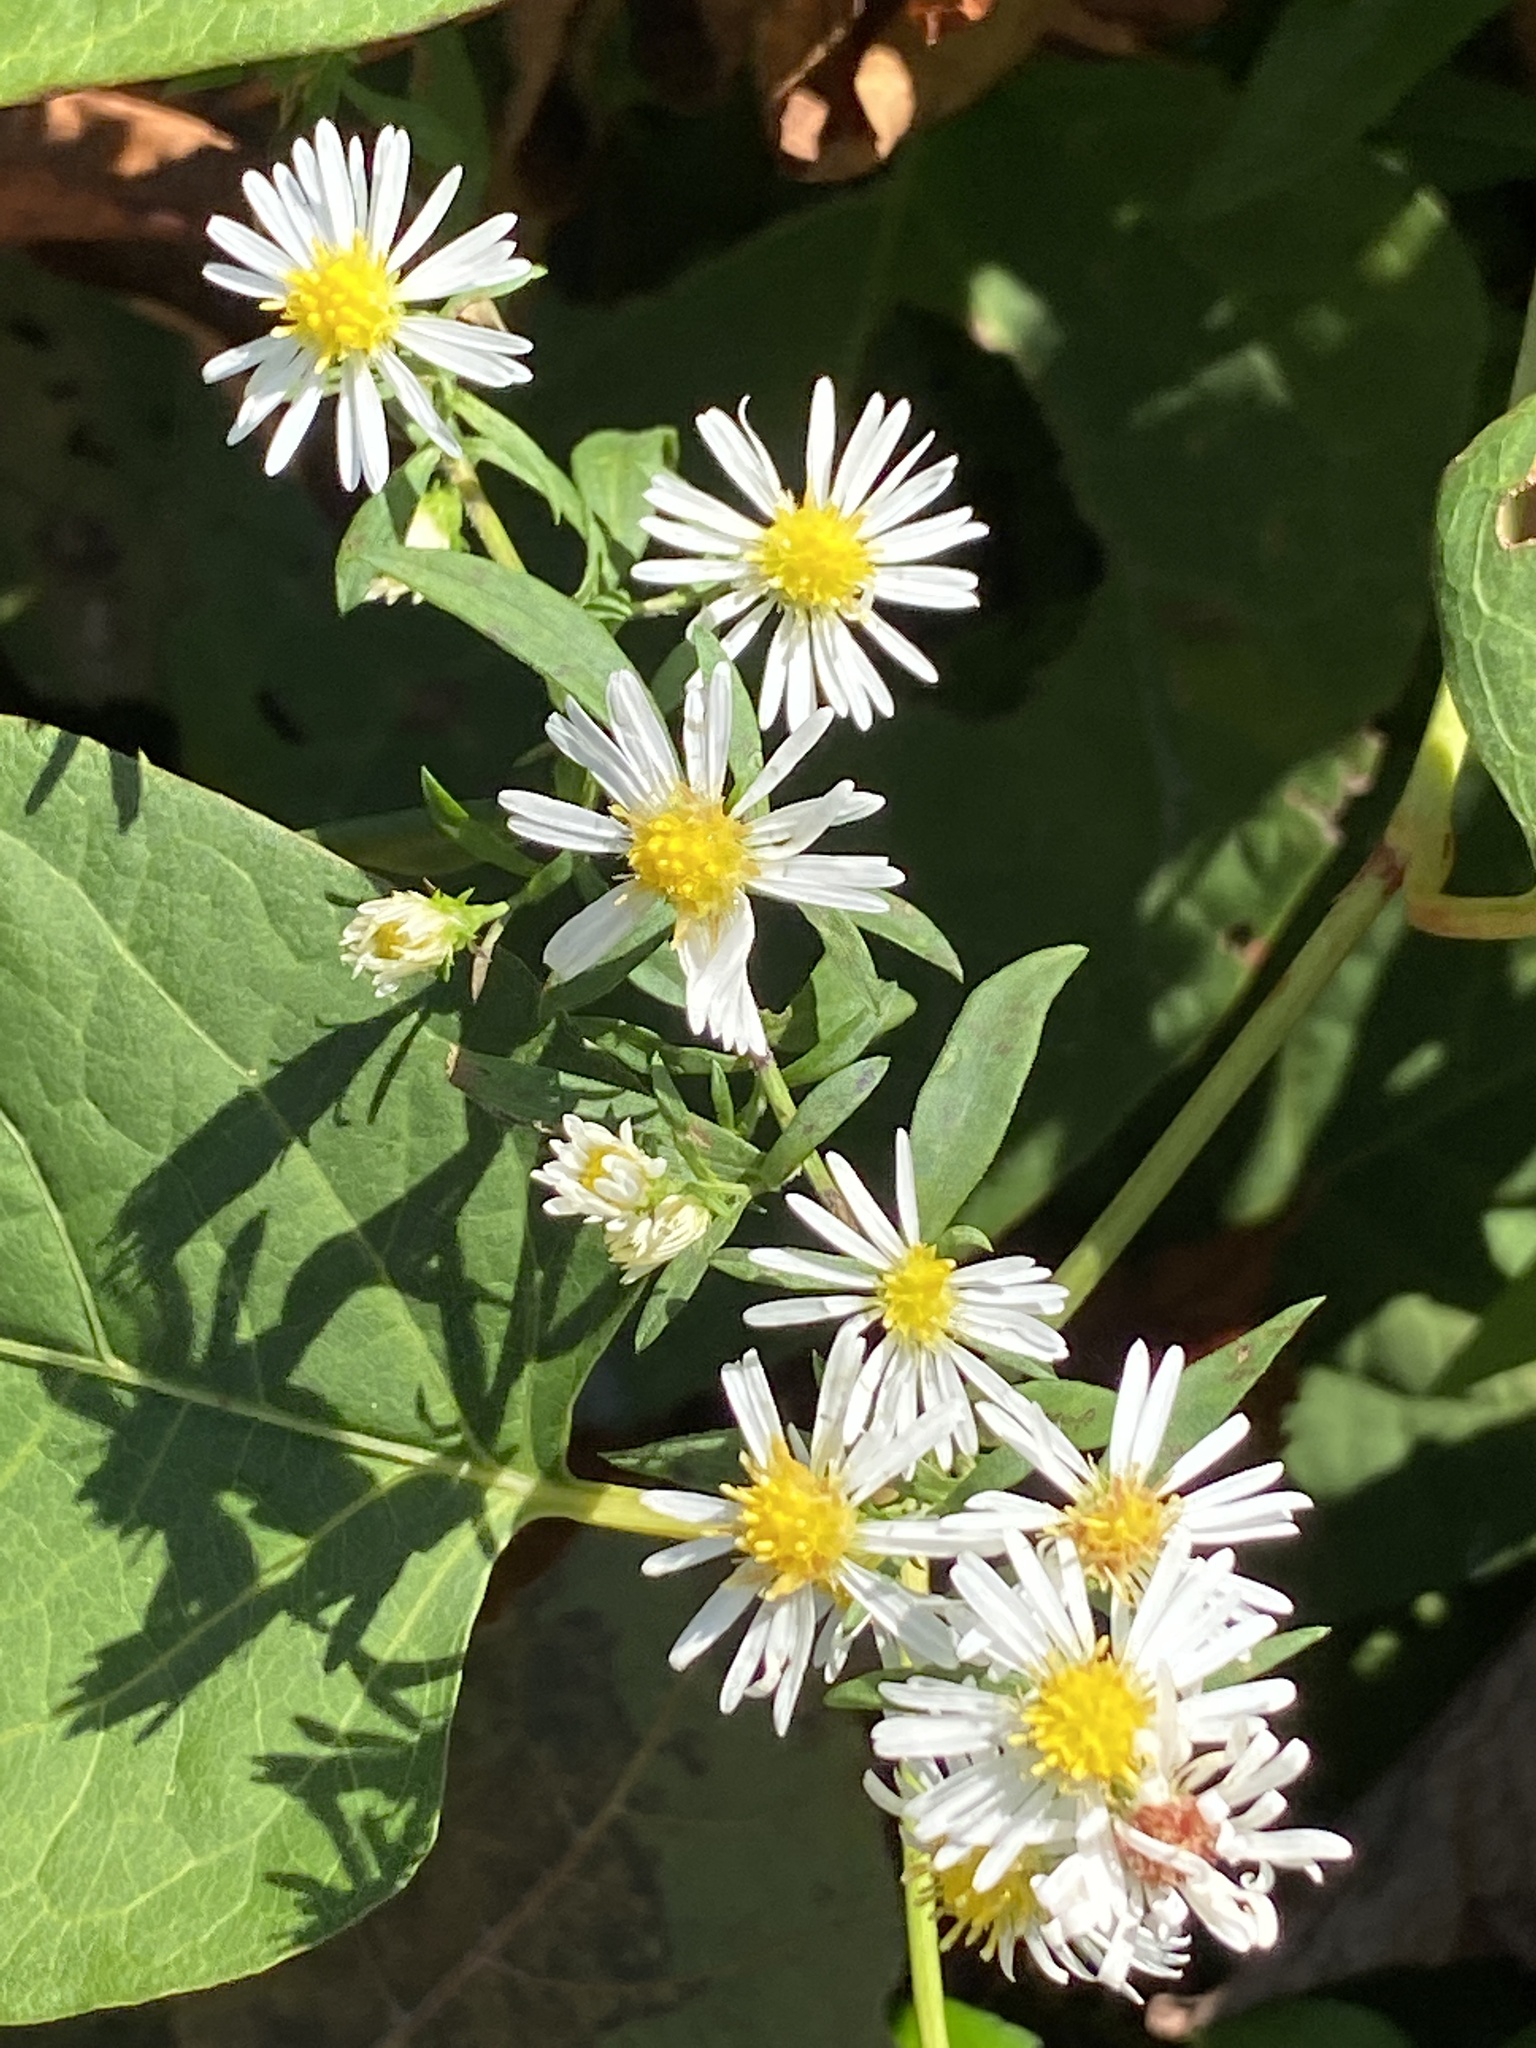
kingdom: Plantae
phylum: Tracheophyta
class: Magnoliopsida
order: Asterales
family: Asteraceae
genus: Symphyotrichum
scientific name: Symphyotrichum pilosum
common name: Awl aster
